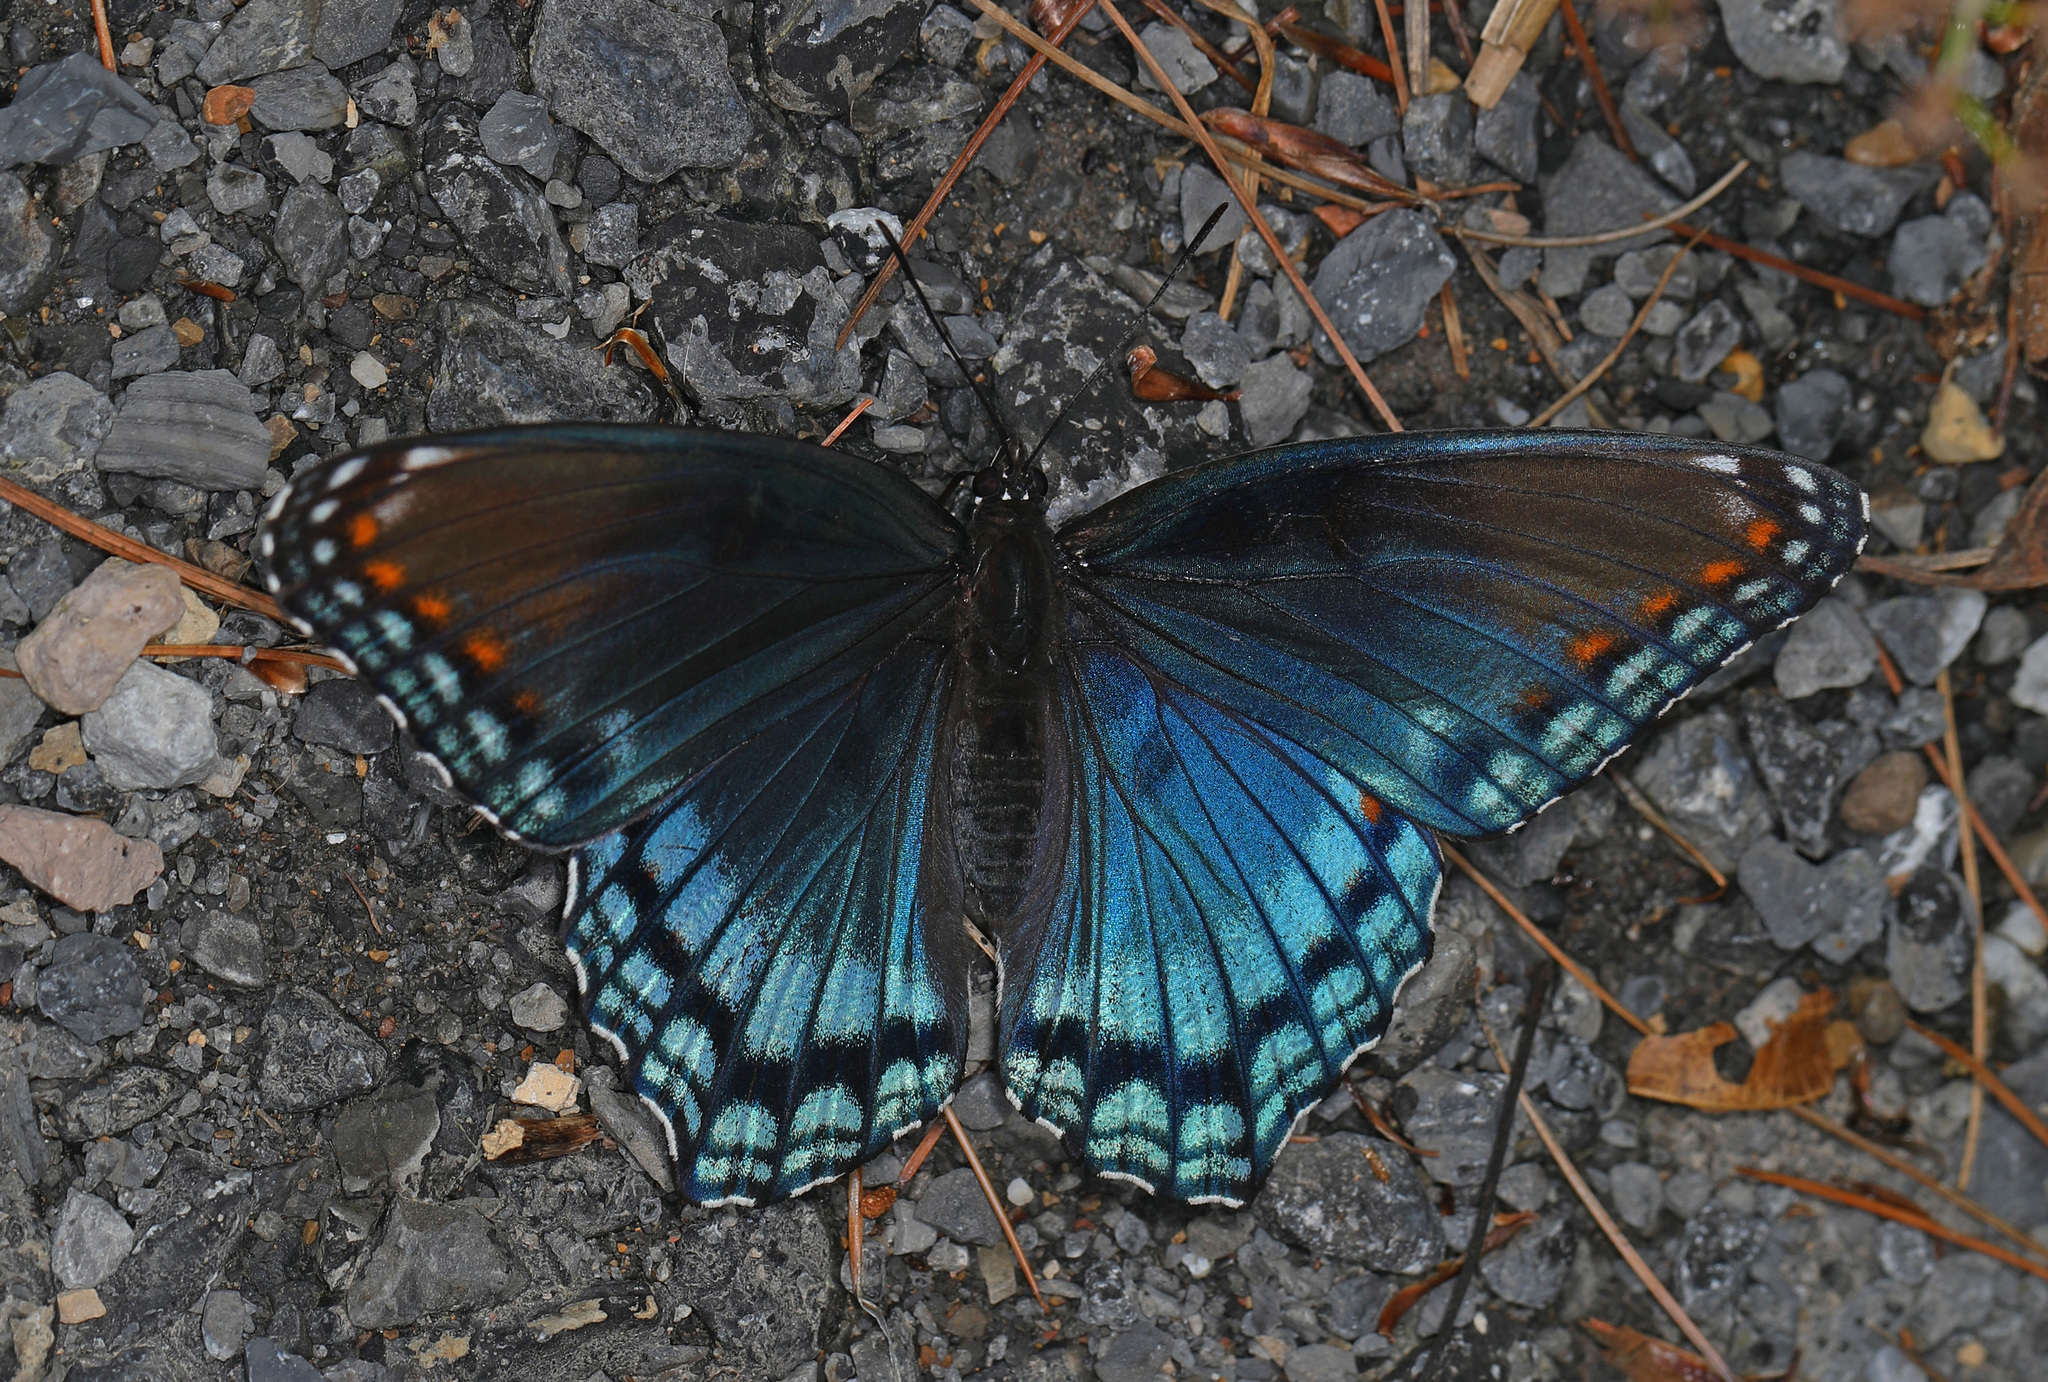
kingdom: Animalia
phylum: Arthropoda
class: Insecta
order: Lepidoptera
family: Nymphalidae
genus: Limenitis
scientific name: Limenitis astyanax
